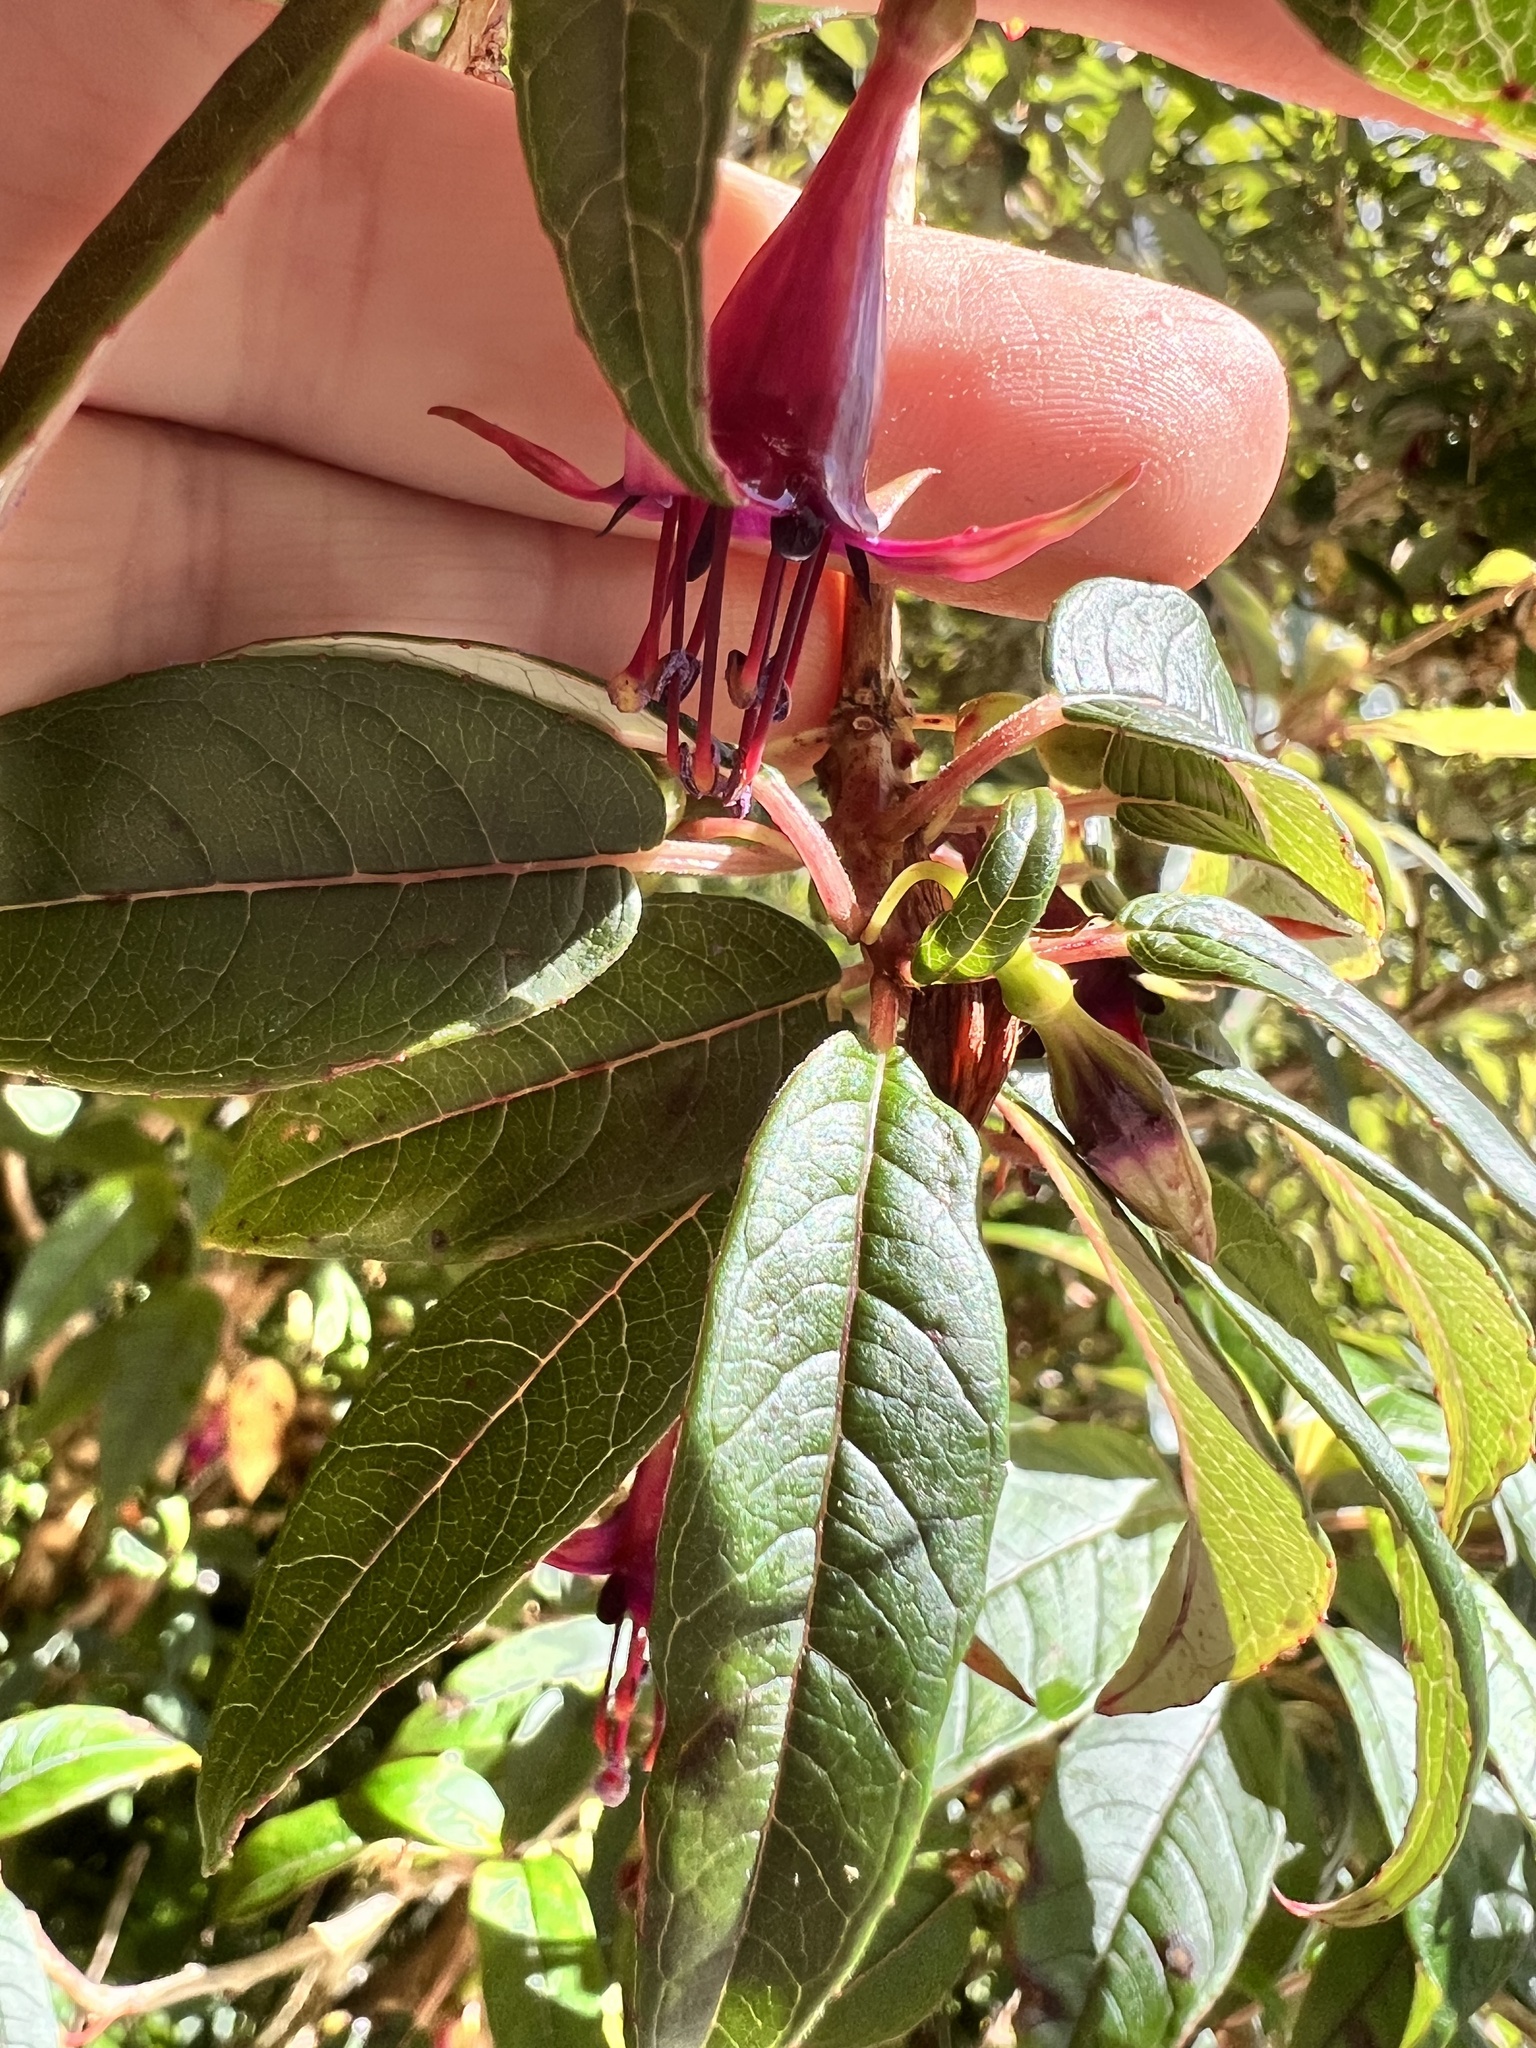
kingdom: Plantae
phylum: Tracheophyta
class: Magnoliopsida
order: Myrtales
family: Onagraceae
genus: Fuchsia
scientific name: Fuchsia excorticata
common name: Tree fuchsia
